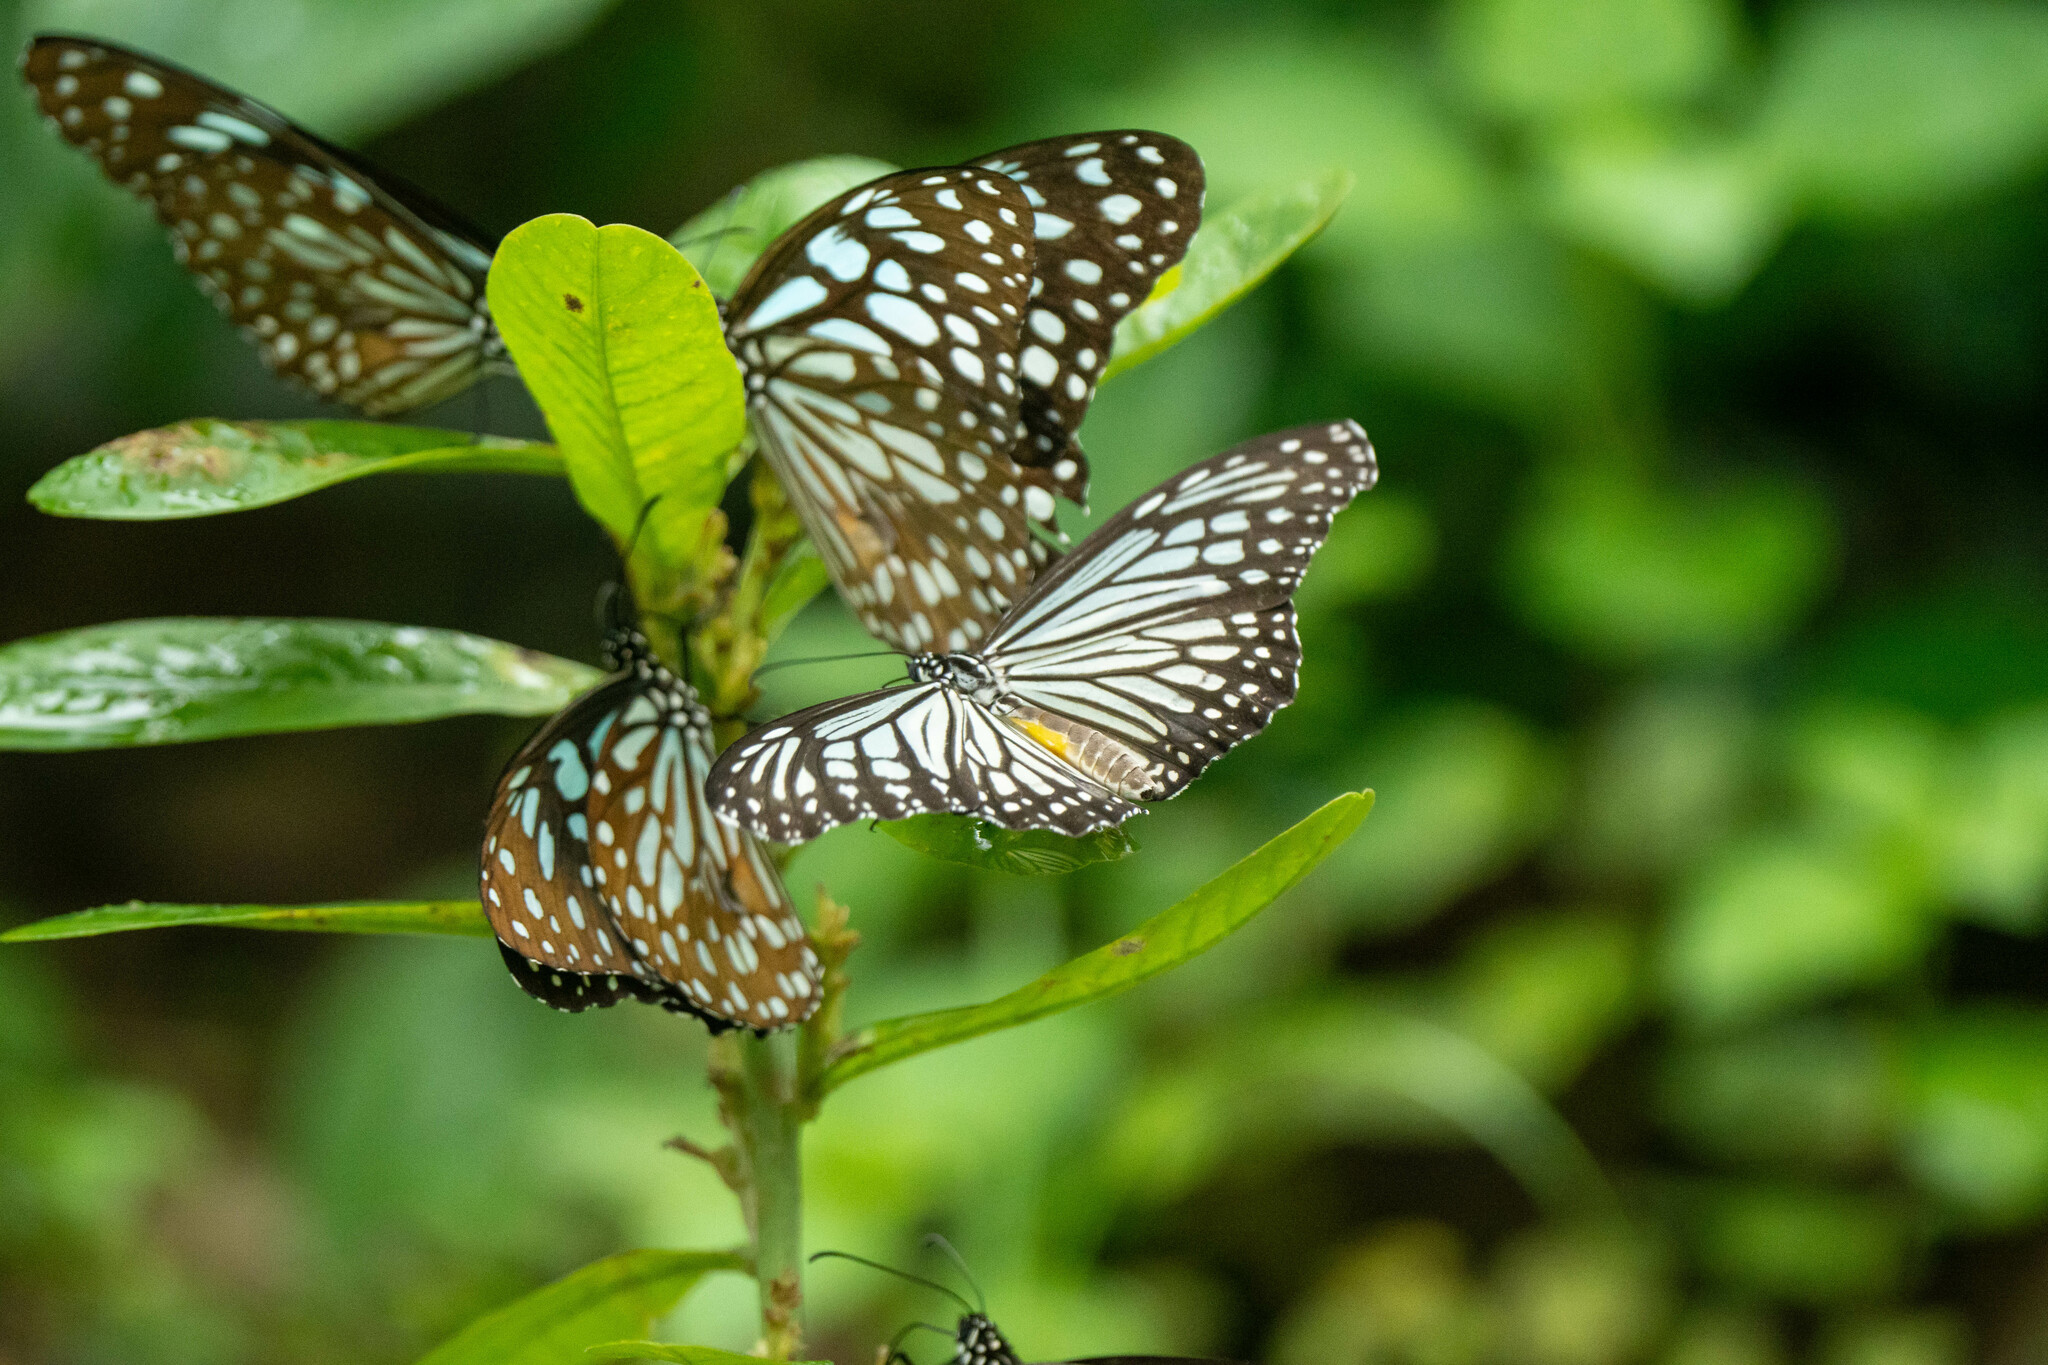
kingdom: Animalia
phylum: Arthropoda
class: Insecta
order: Lepidoptera
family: Nymphalidae
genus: Parantica
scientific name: Parantica aglea
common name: Glassy tiger
